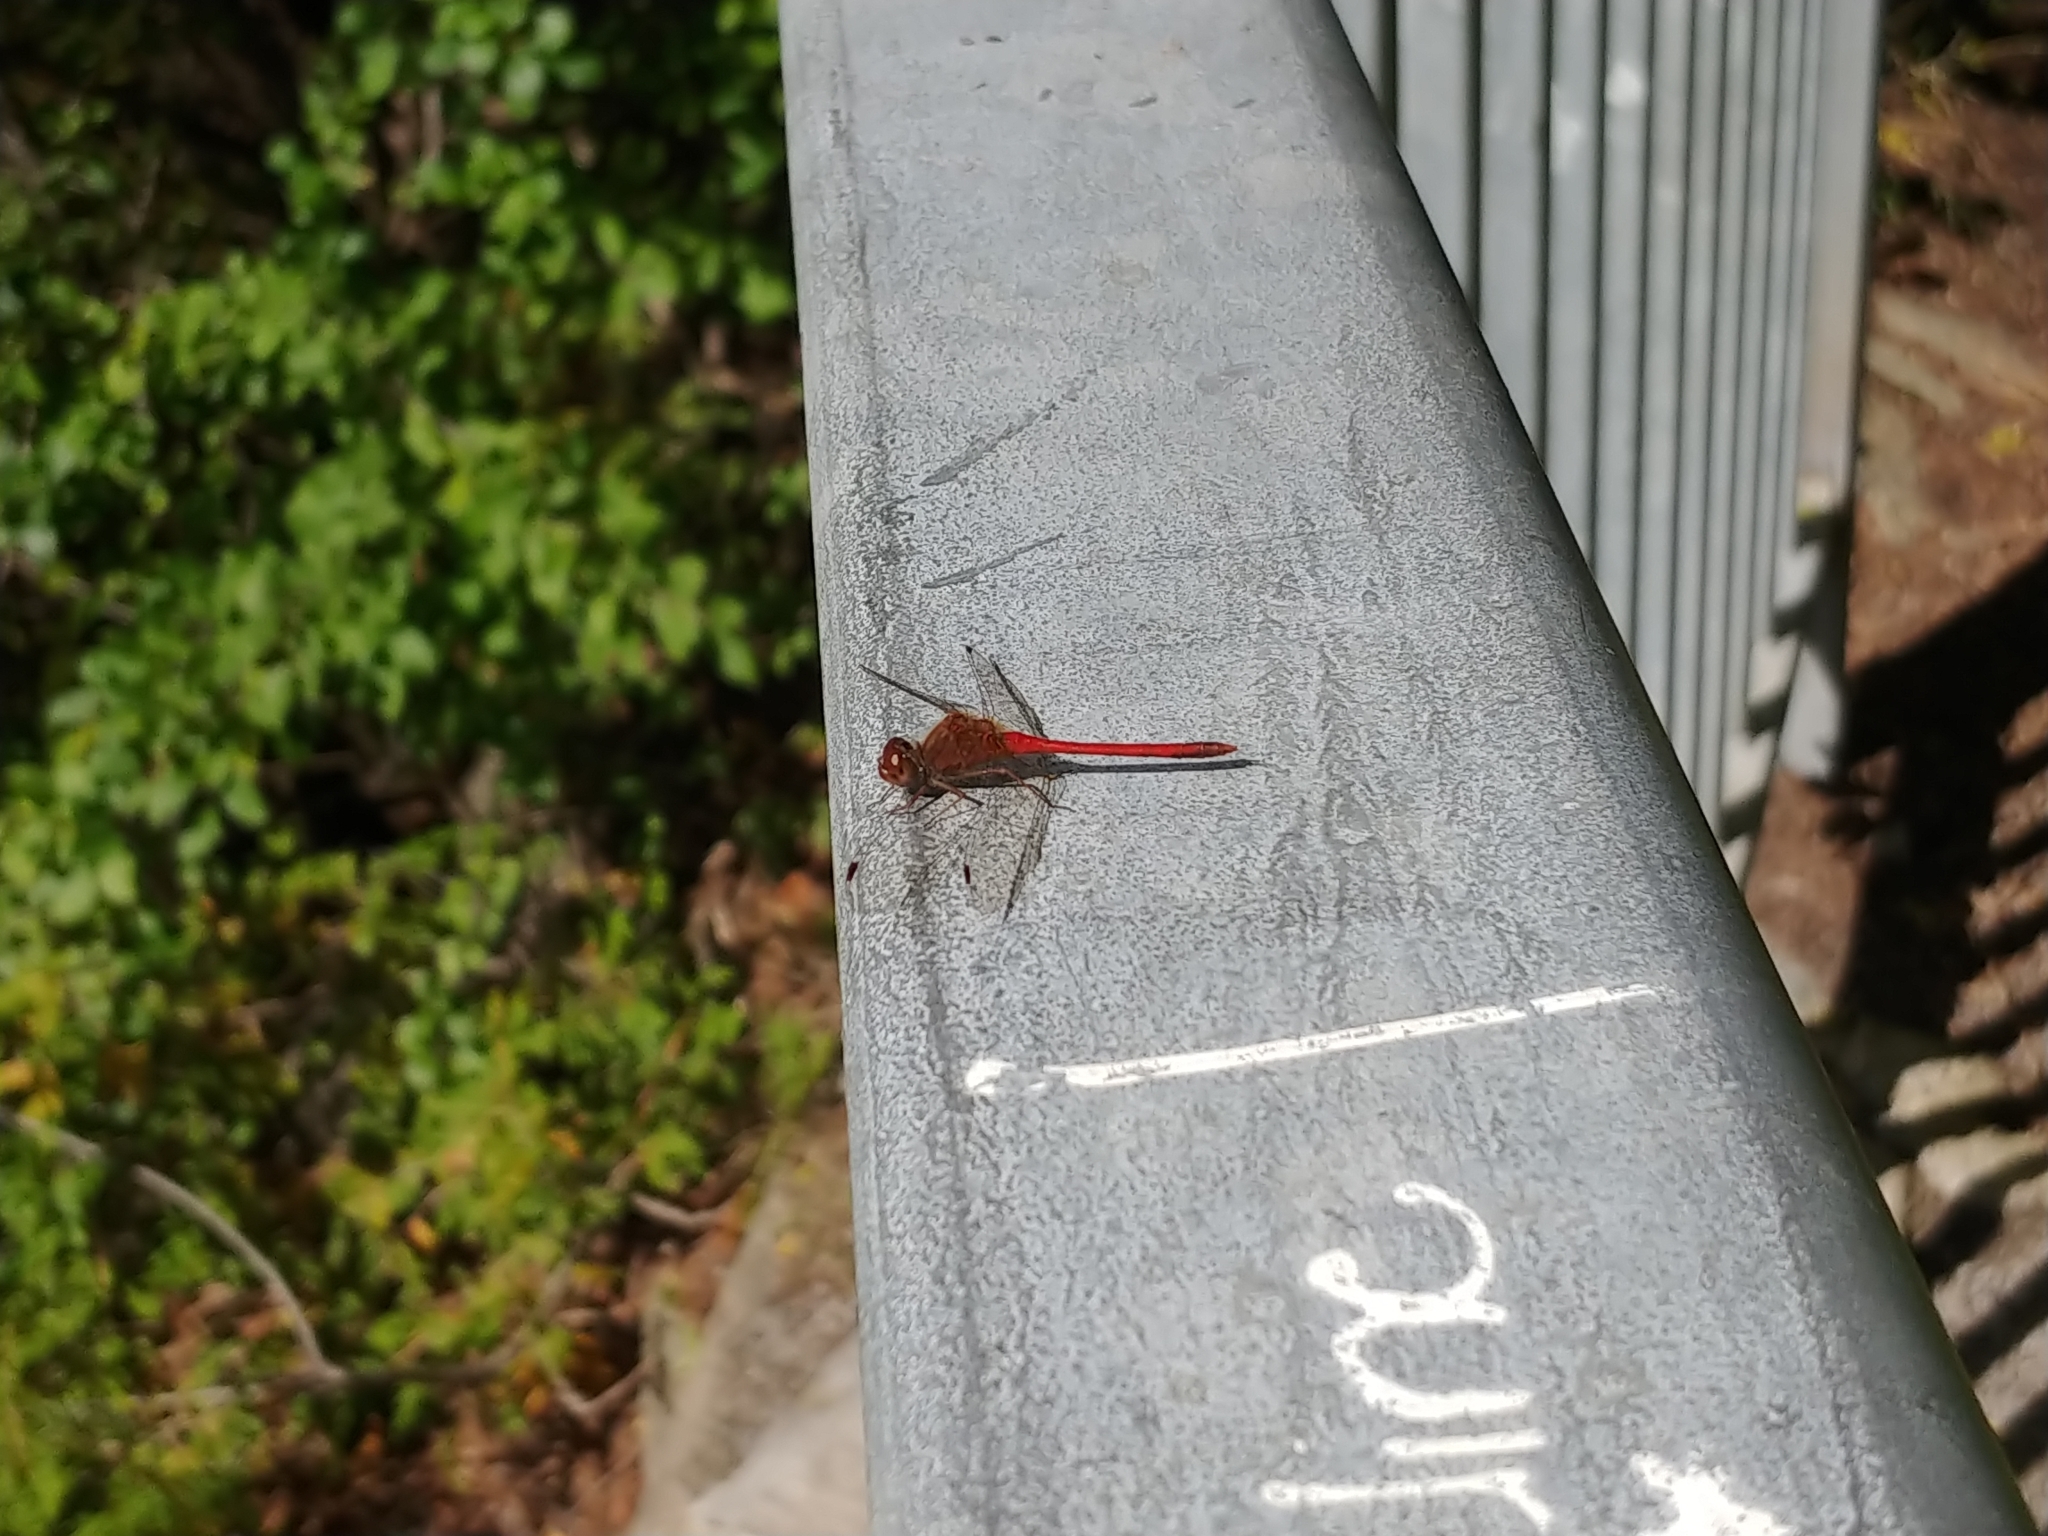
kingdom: Animalia
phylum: Arthropoda
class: Insecta
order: Odonata
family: Libellulidae
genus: Sympetrum
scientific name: Sympetrum vicinum
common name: Autumn meadowhawk
